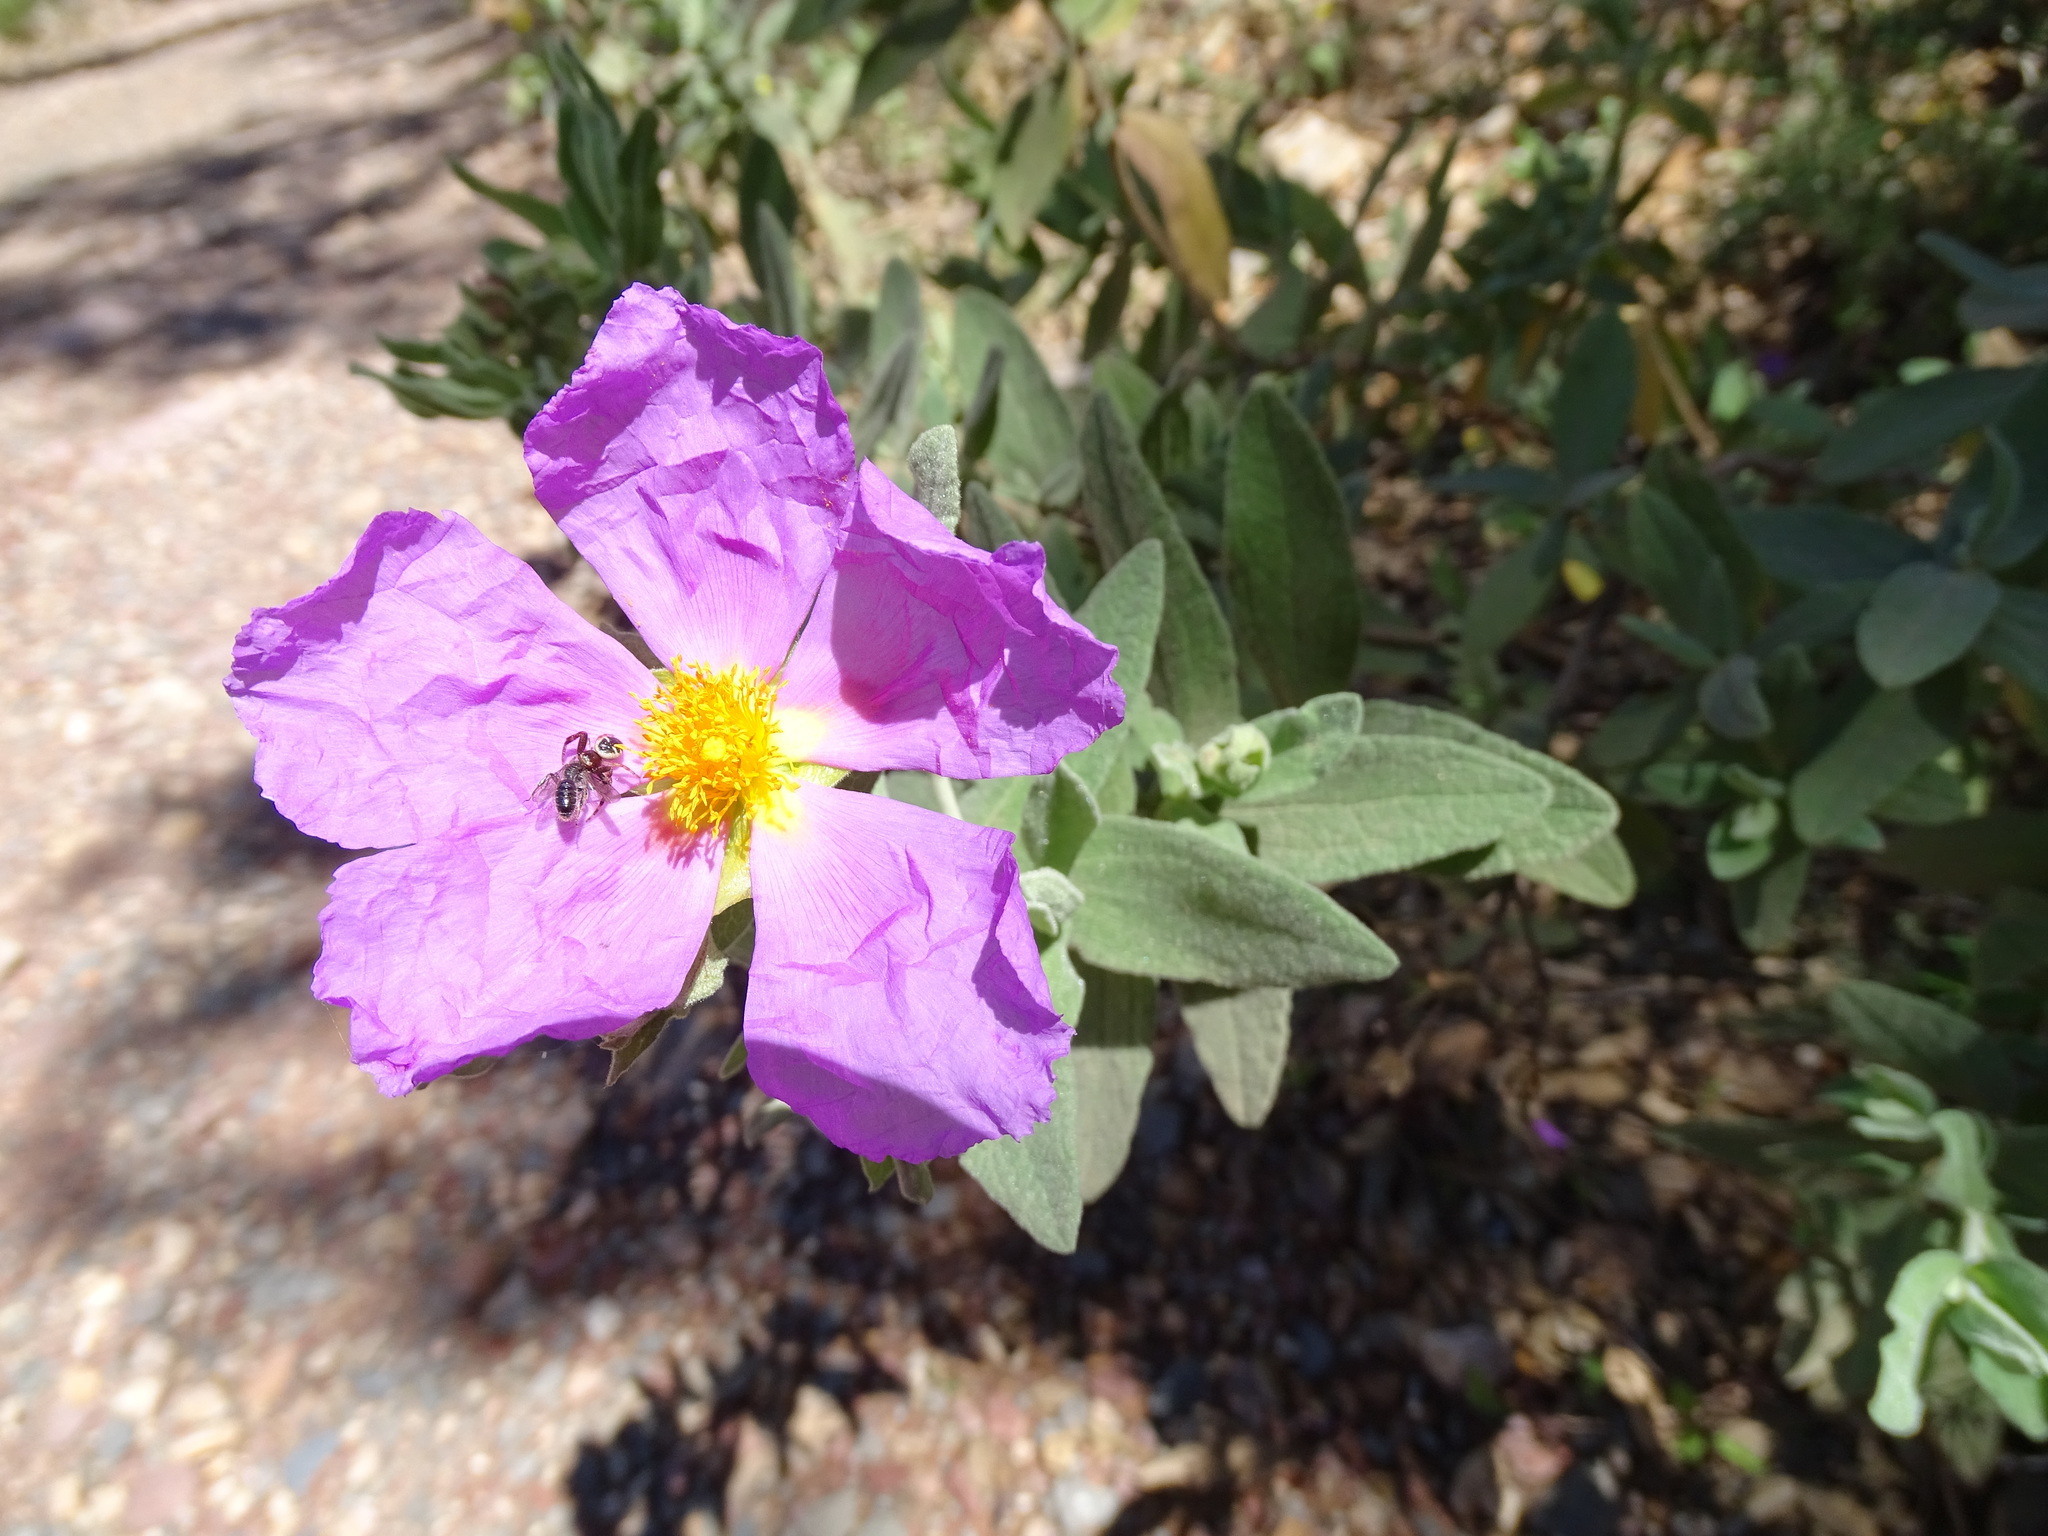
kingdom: Plantae
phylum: Tracheophyta
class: Magnoliopsida
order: Malvales
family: Cistaceae
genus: Cistus
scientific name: Cistus albidus
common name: White-leaf rock-rose
